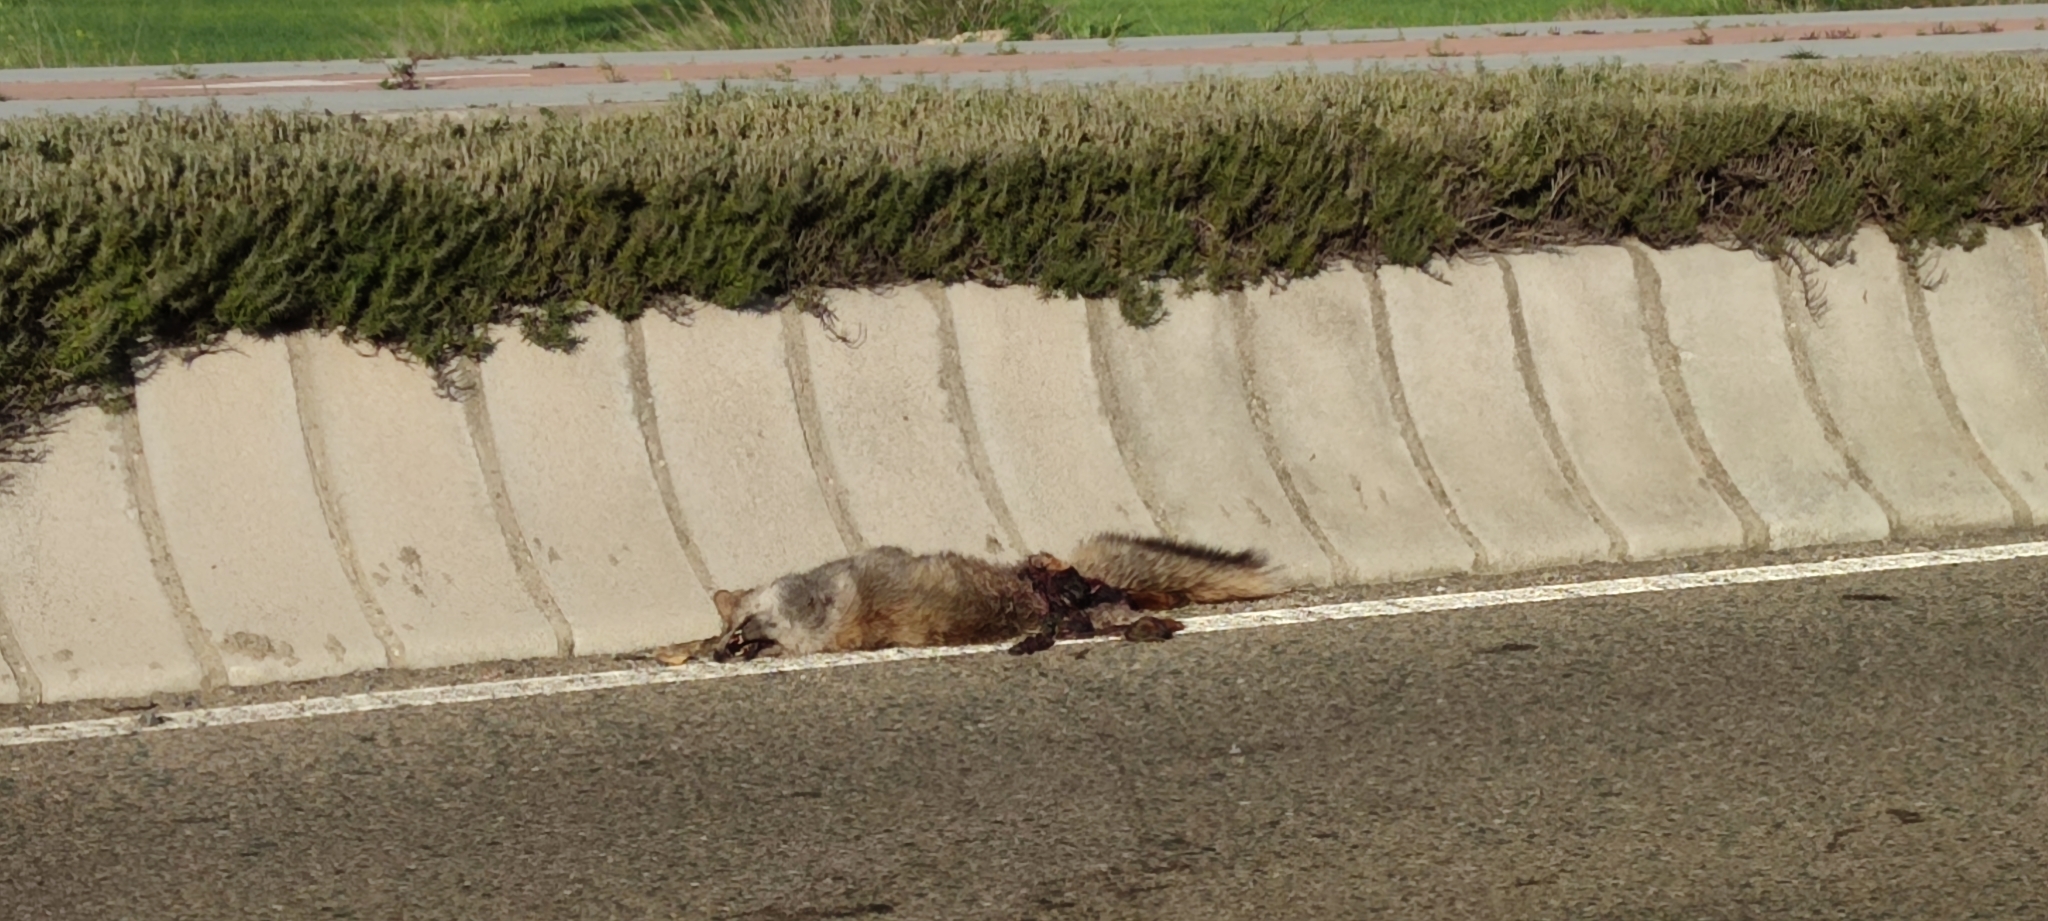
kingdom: Animalia
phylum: Chordata
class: Mammalia
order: Carnivora
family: Canidae
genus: Vulpes
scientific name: Vulpes vulpes
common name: Red fox
